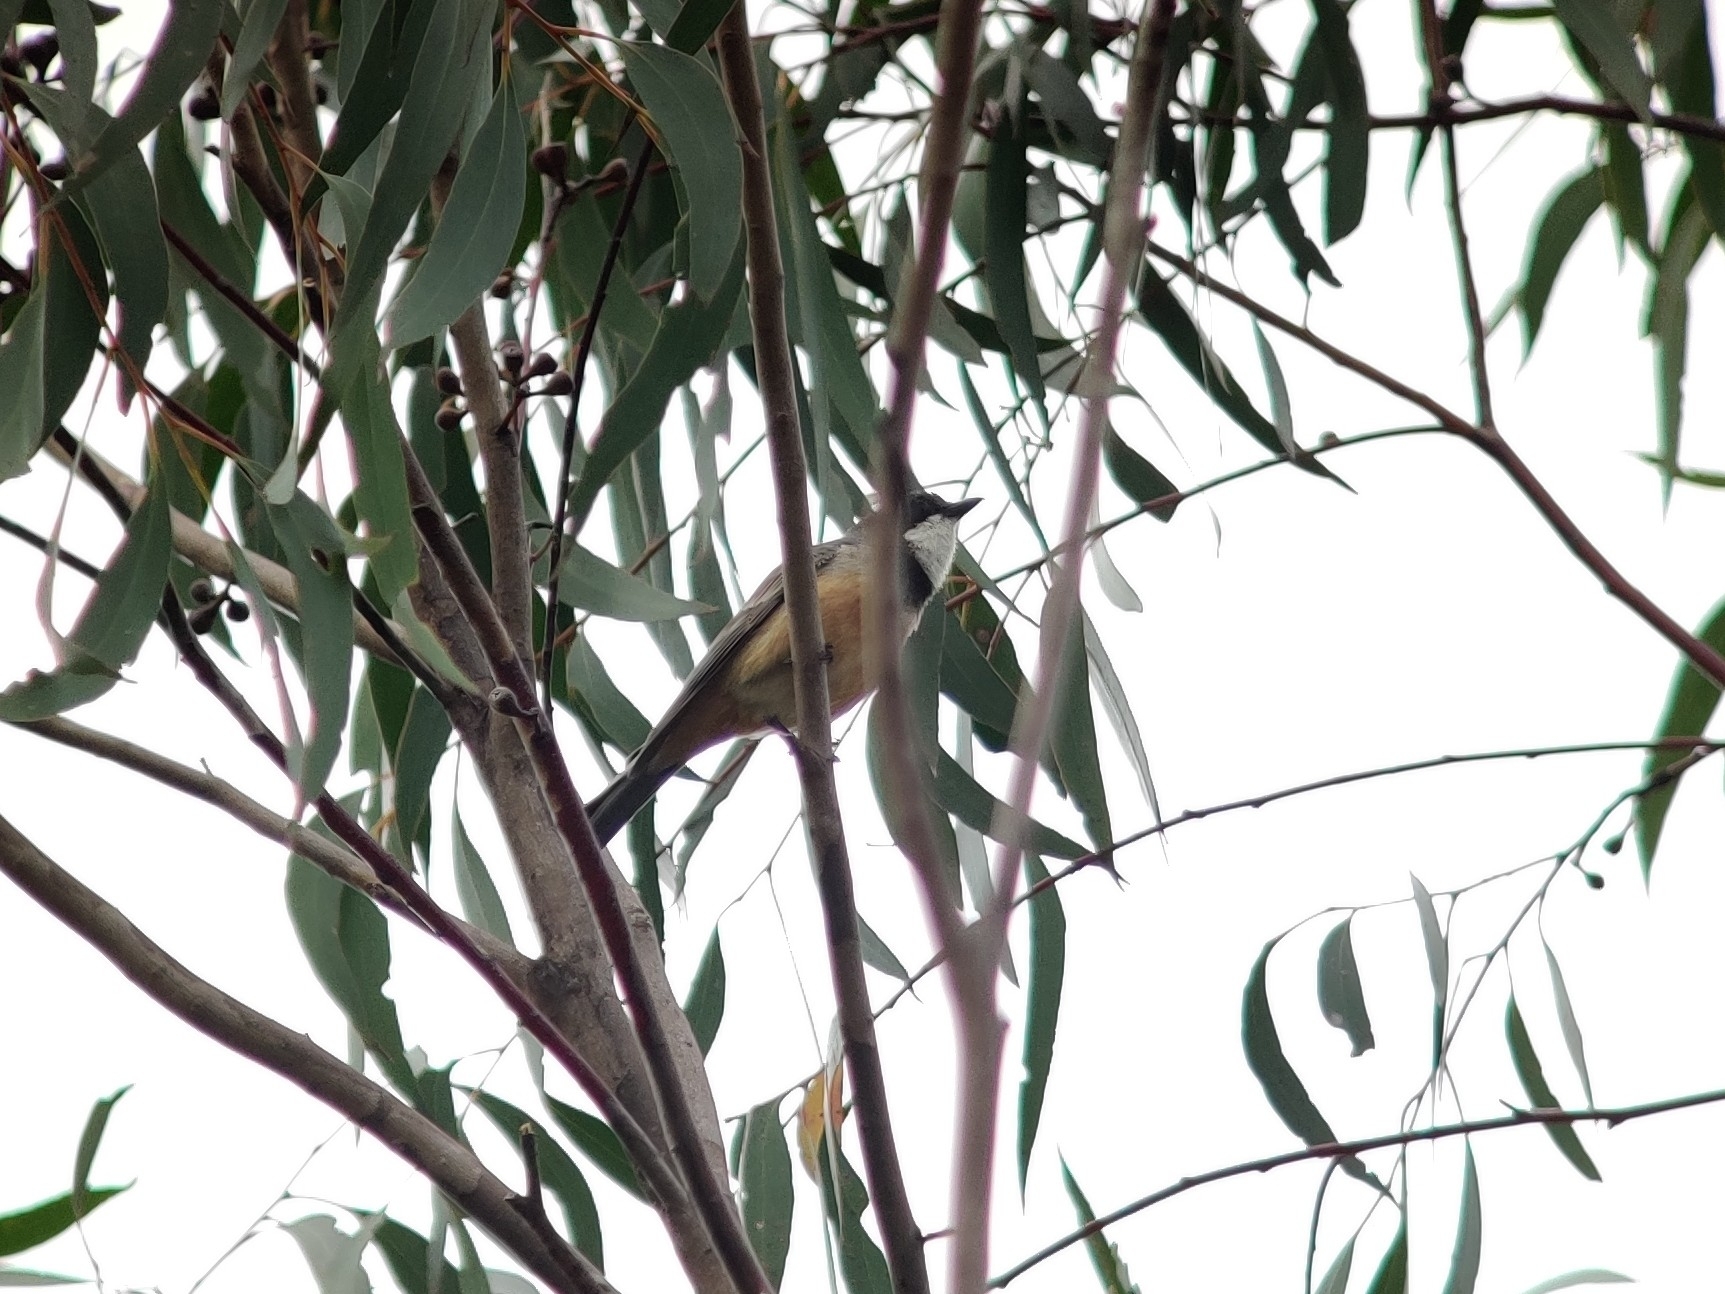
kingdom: Animalia
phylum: Chordata
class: Aves
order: Passeriformes
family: Pachycephalidae
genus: Pachycephala
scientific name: Pachycephala rufiventris
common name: Rufous whistler
